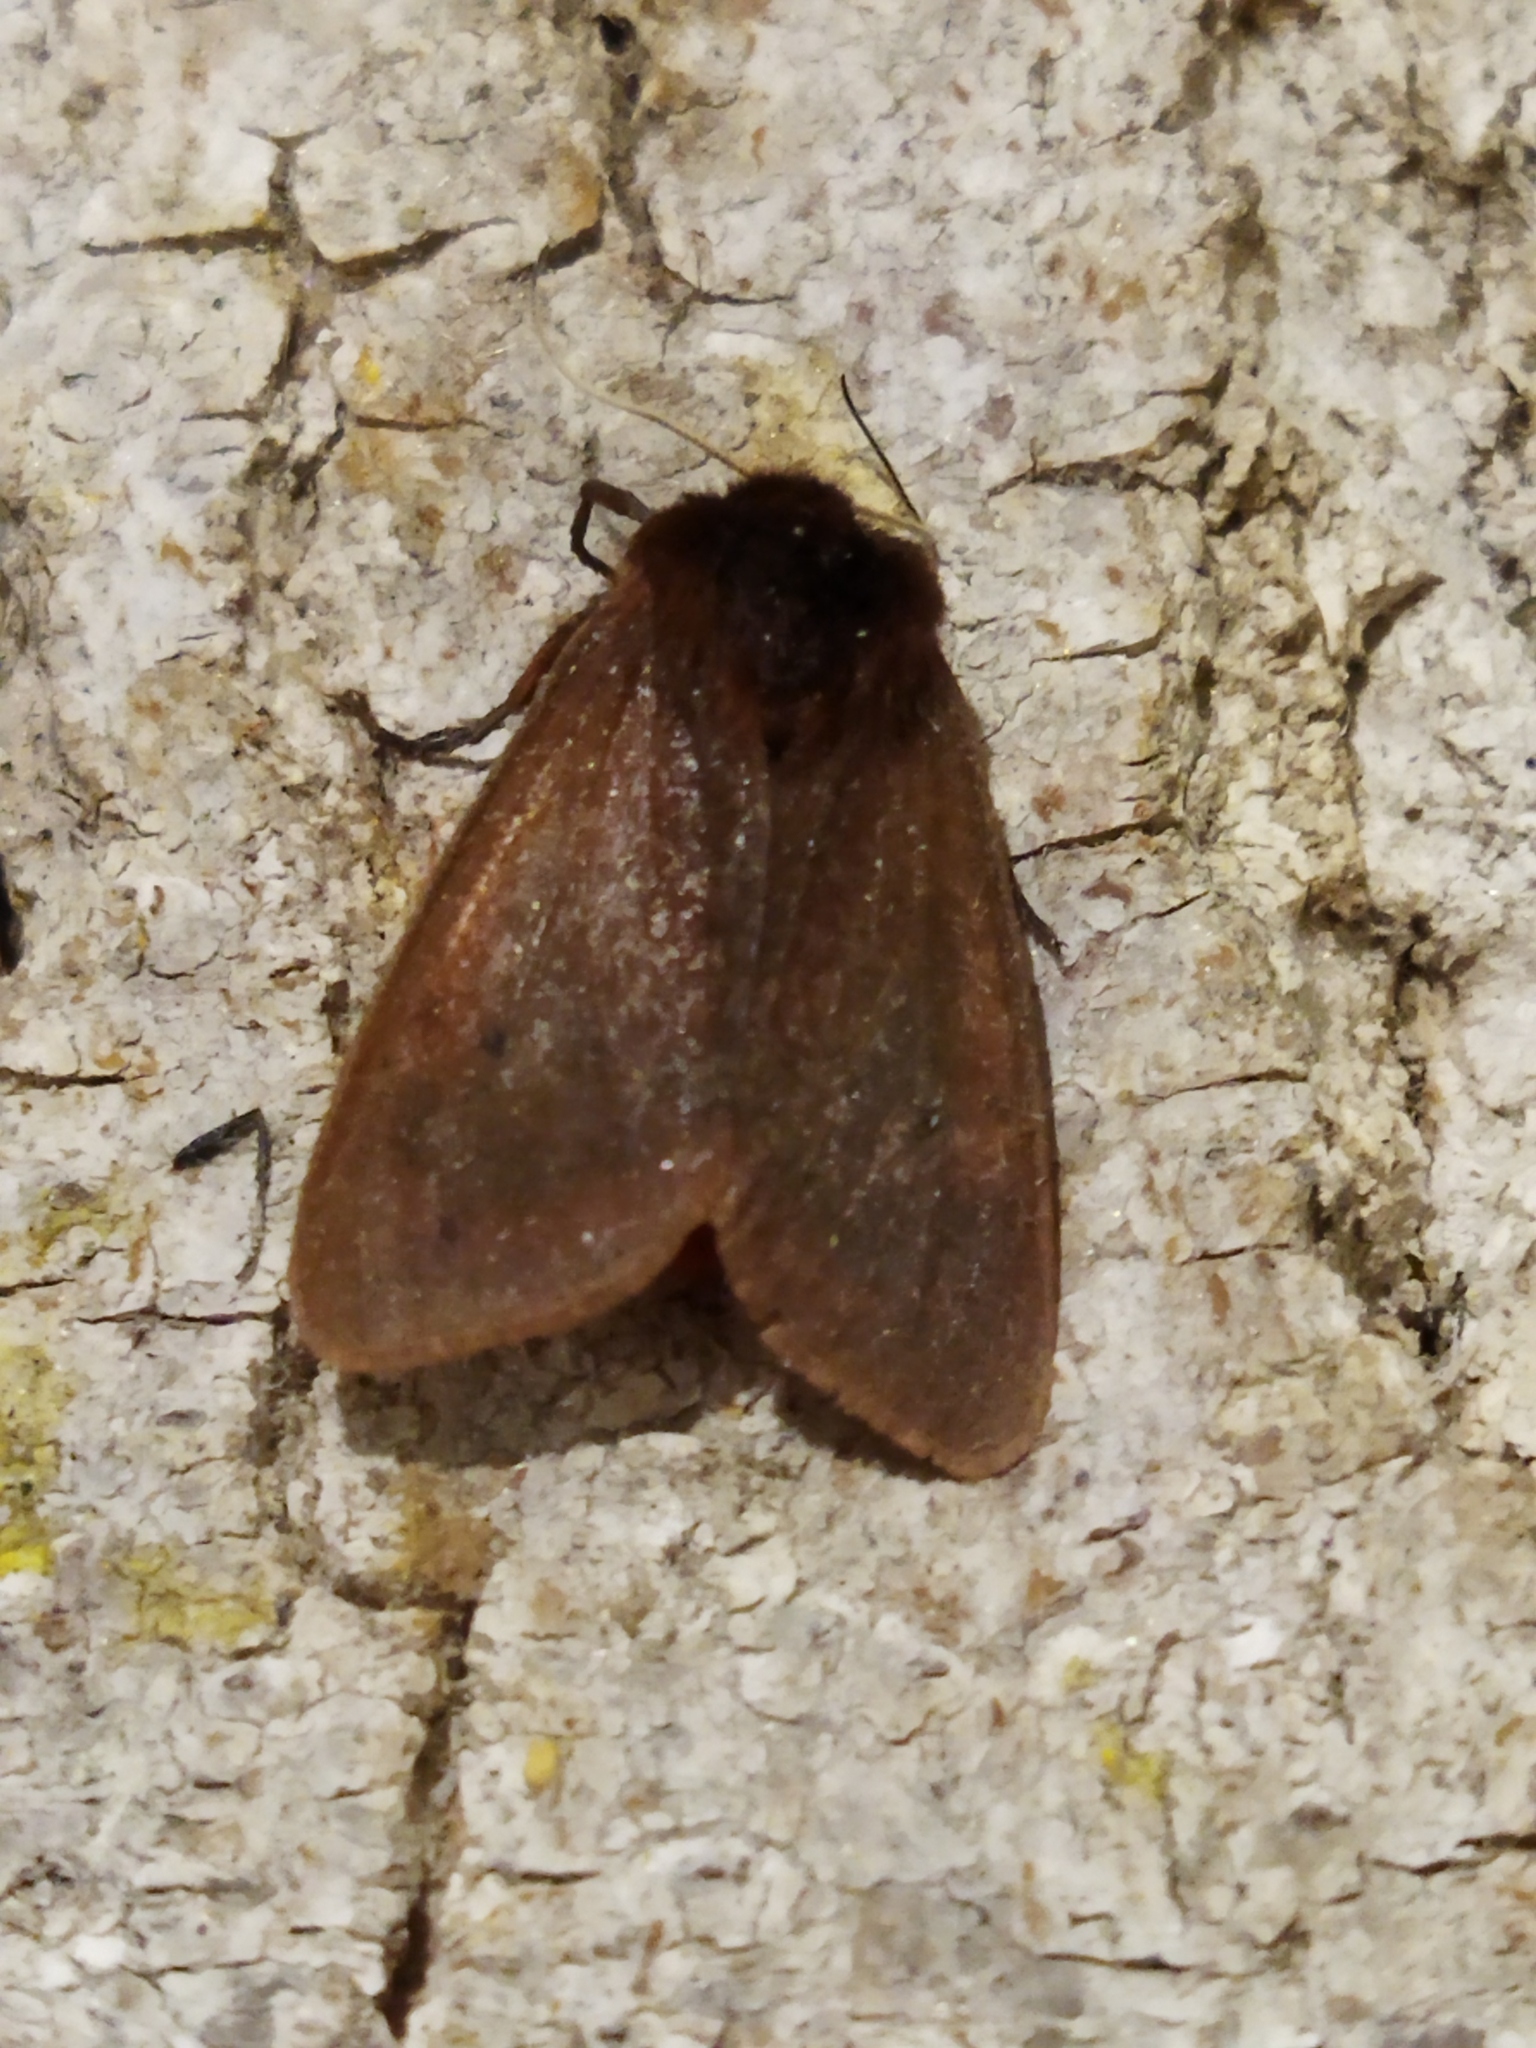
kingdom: Animalia
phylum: Arthropoda
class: Insecta
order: Lepidoptera
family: Erebidae
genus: Phragmatobia
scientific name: Phragmatobia fuliginosa
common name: Ruby tiger
